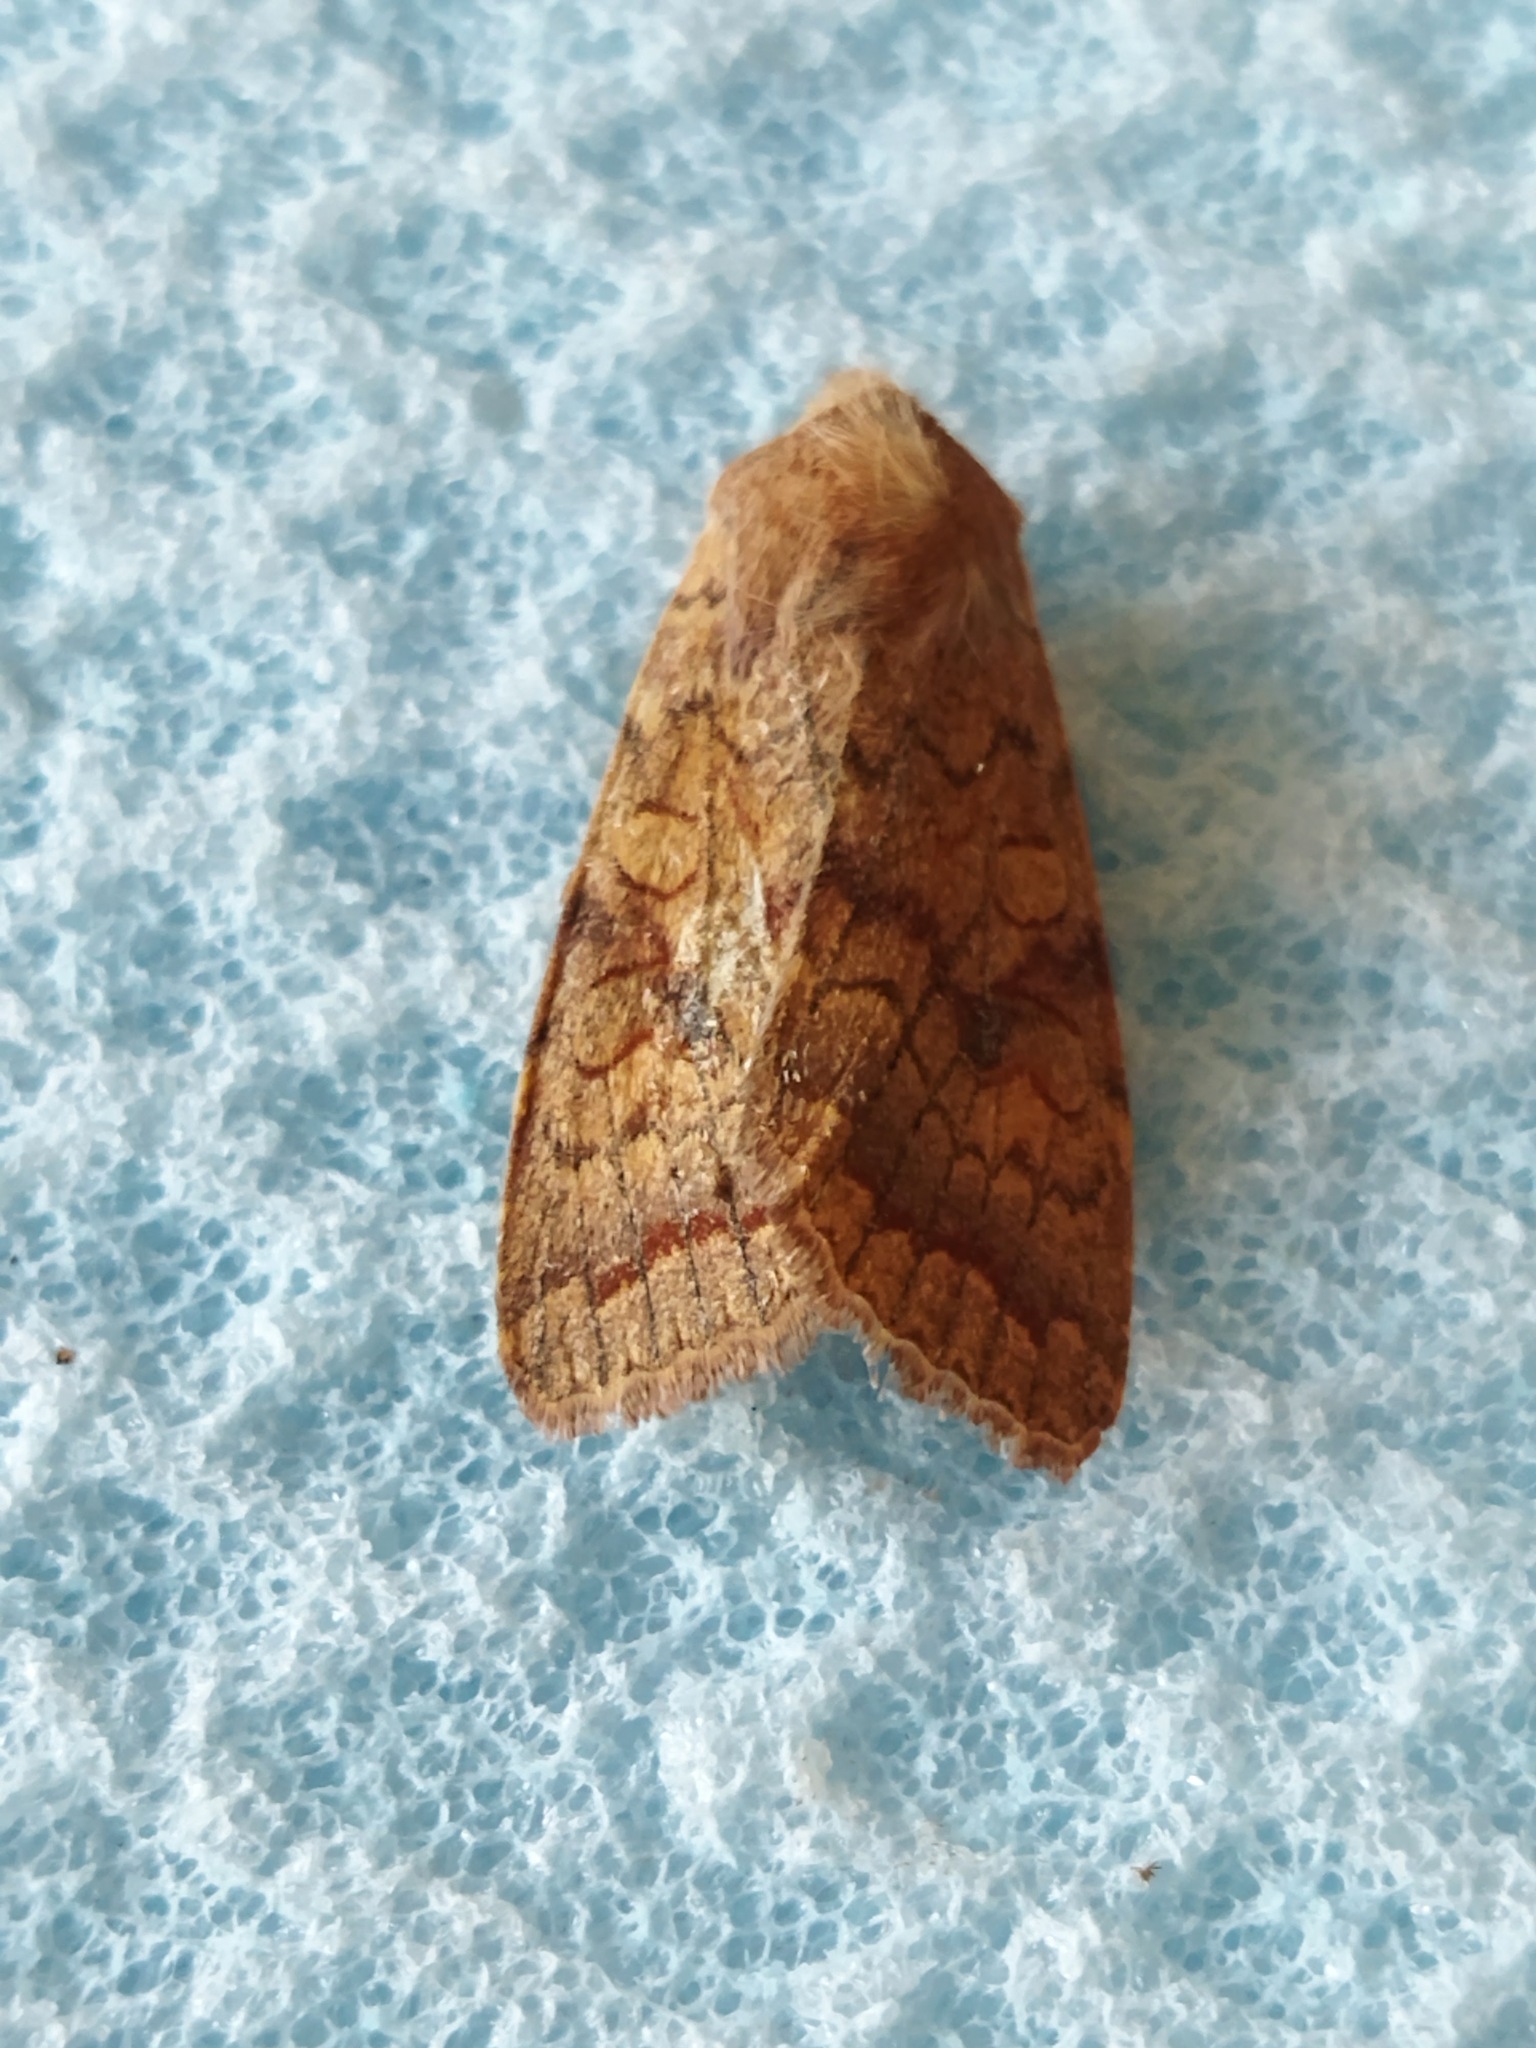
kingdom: Animalia
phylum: Arthropoda
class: Insecta
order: Lepidoptera
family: Noctuidae
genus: Sunira
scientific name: Sunira circellaris
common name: Brick
